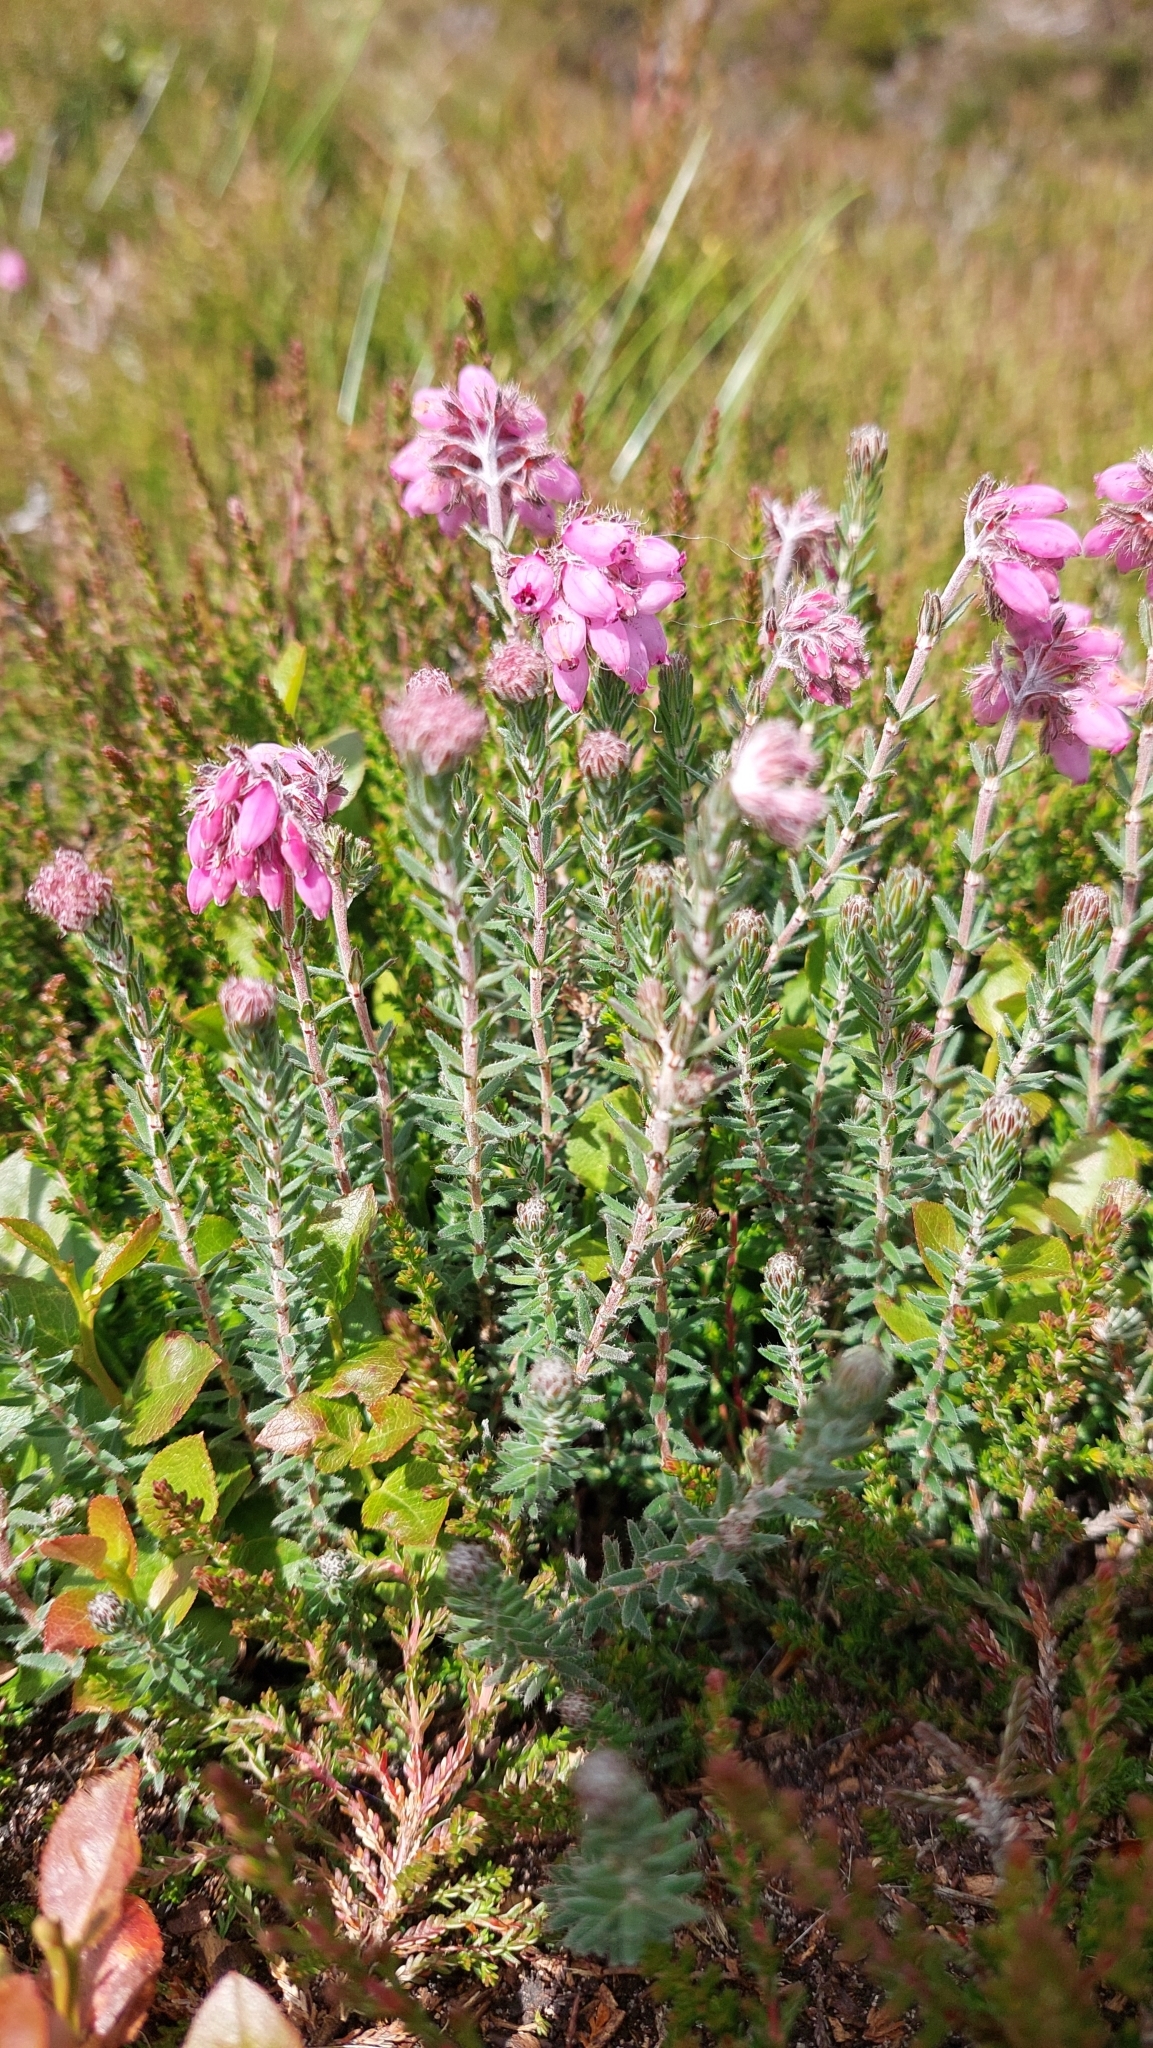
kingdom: Plantae
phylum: Tracheophyta
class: Magnoliopsida
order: Ericales
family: Ericaceae
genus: Erica
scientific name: Erica tetralix
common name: Cross-leaved heath
